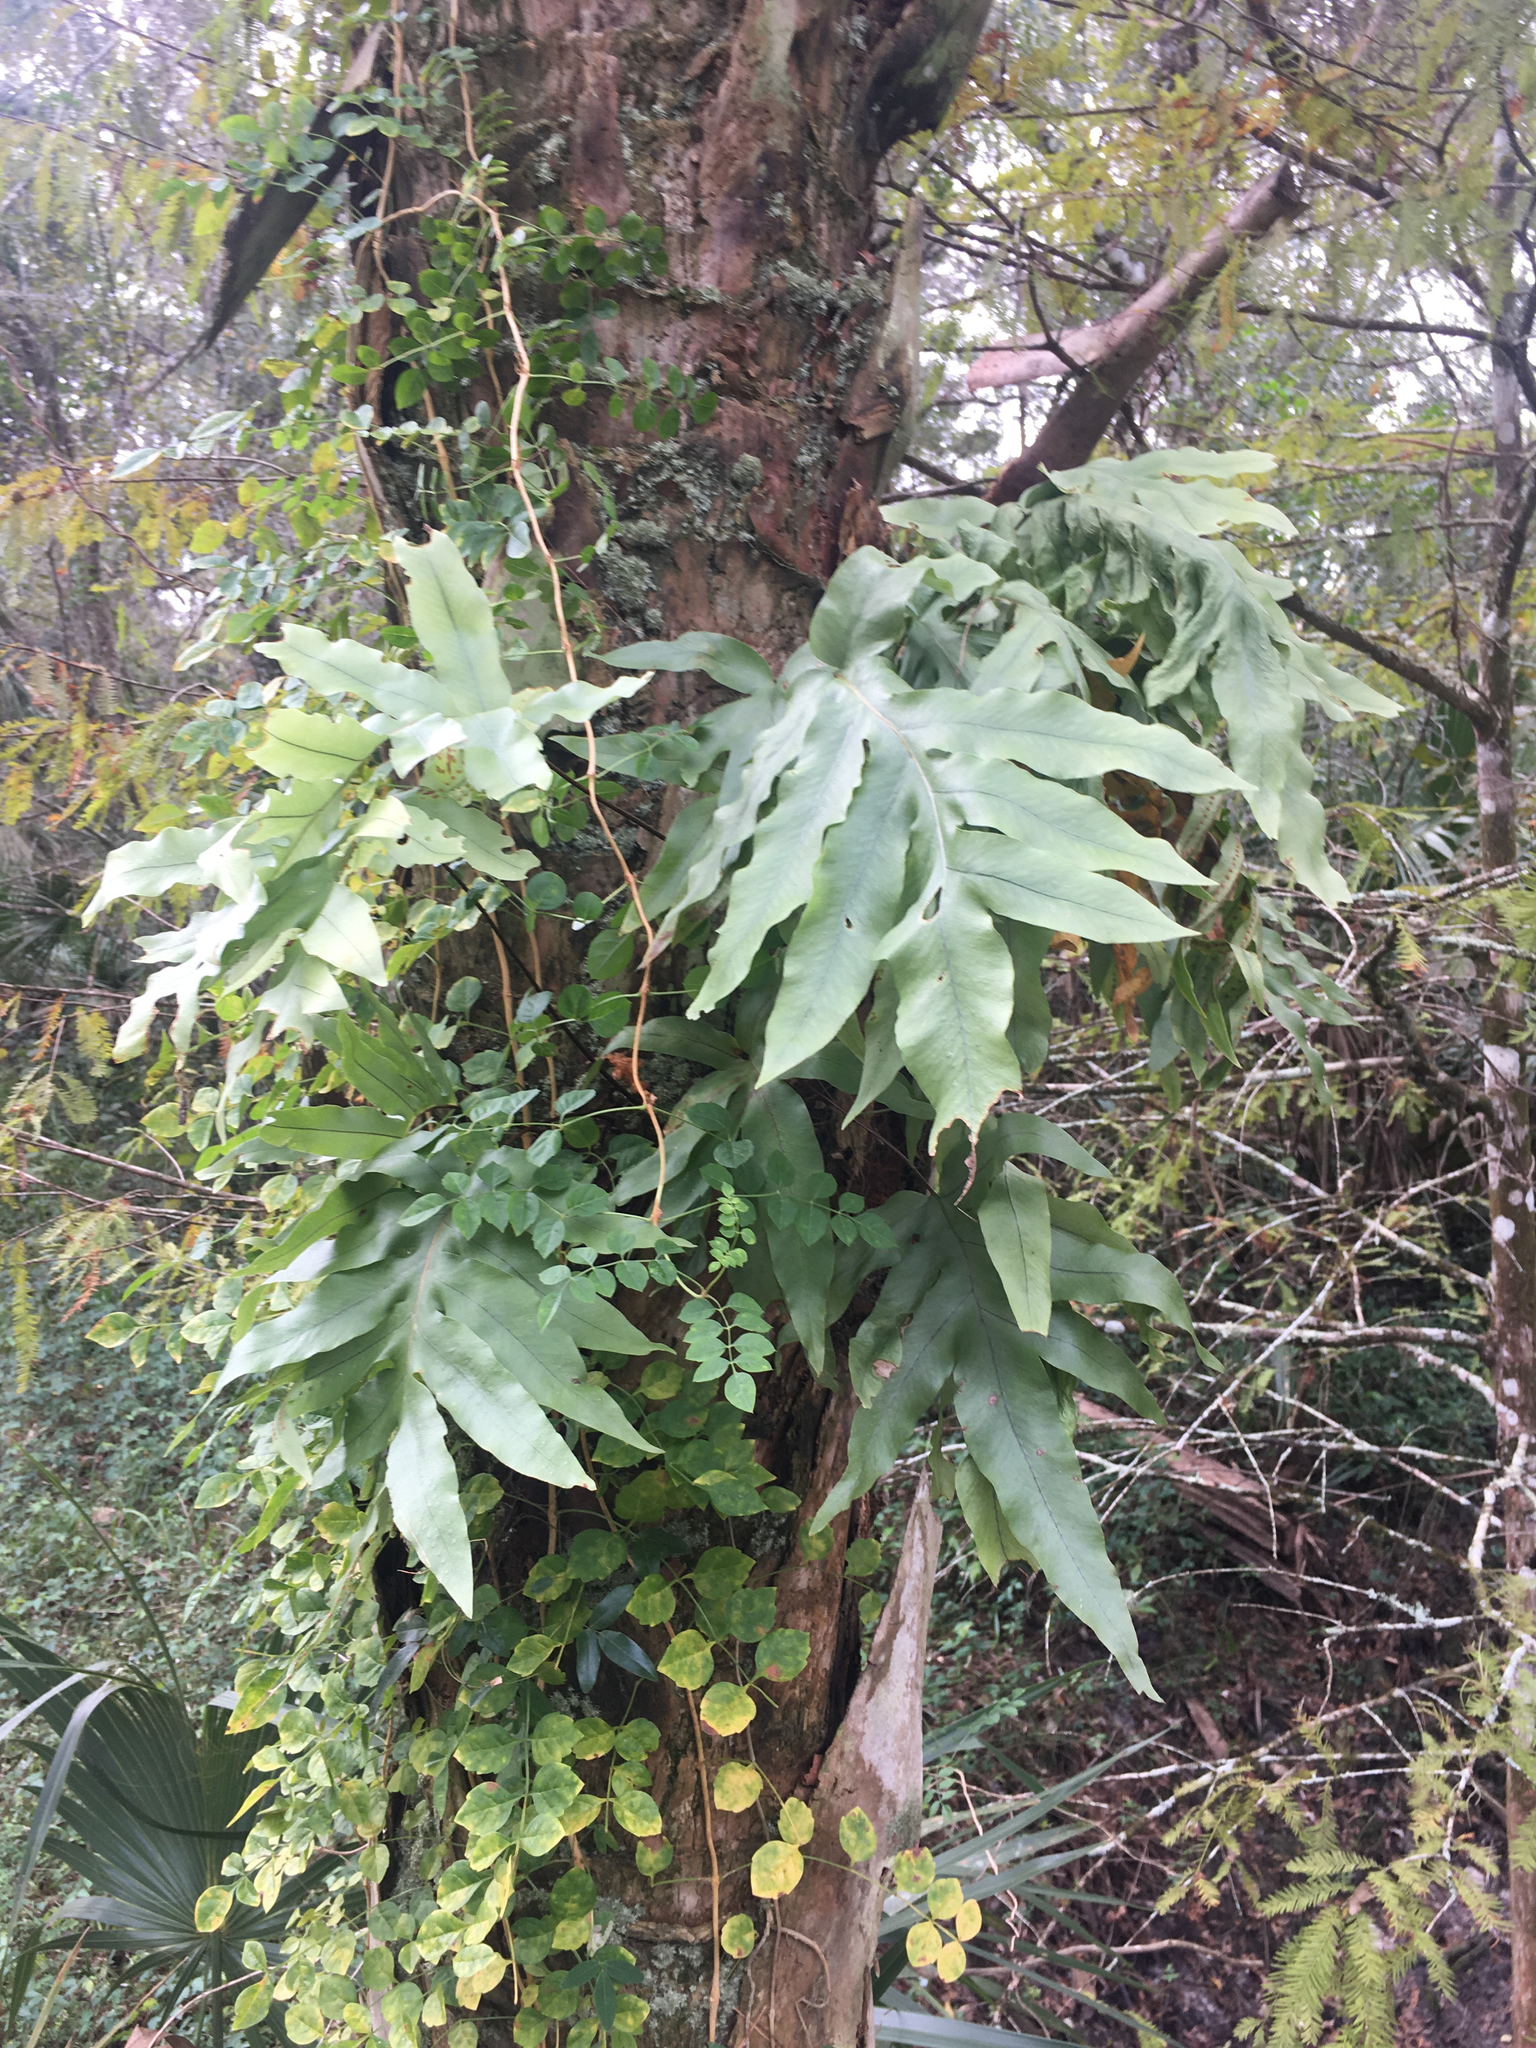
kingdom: Plantae
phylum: Tracheophyta
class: Polypodiopsida
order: Polypodiales
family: Polypodiaceae
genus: Phlebodium
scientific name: Phlebodium aureum
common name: Gold-foot fern
